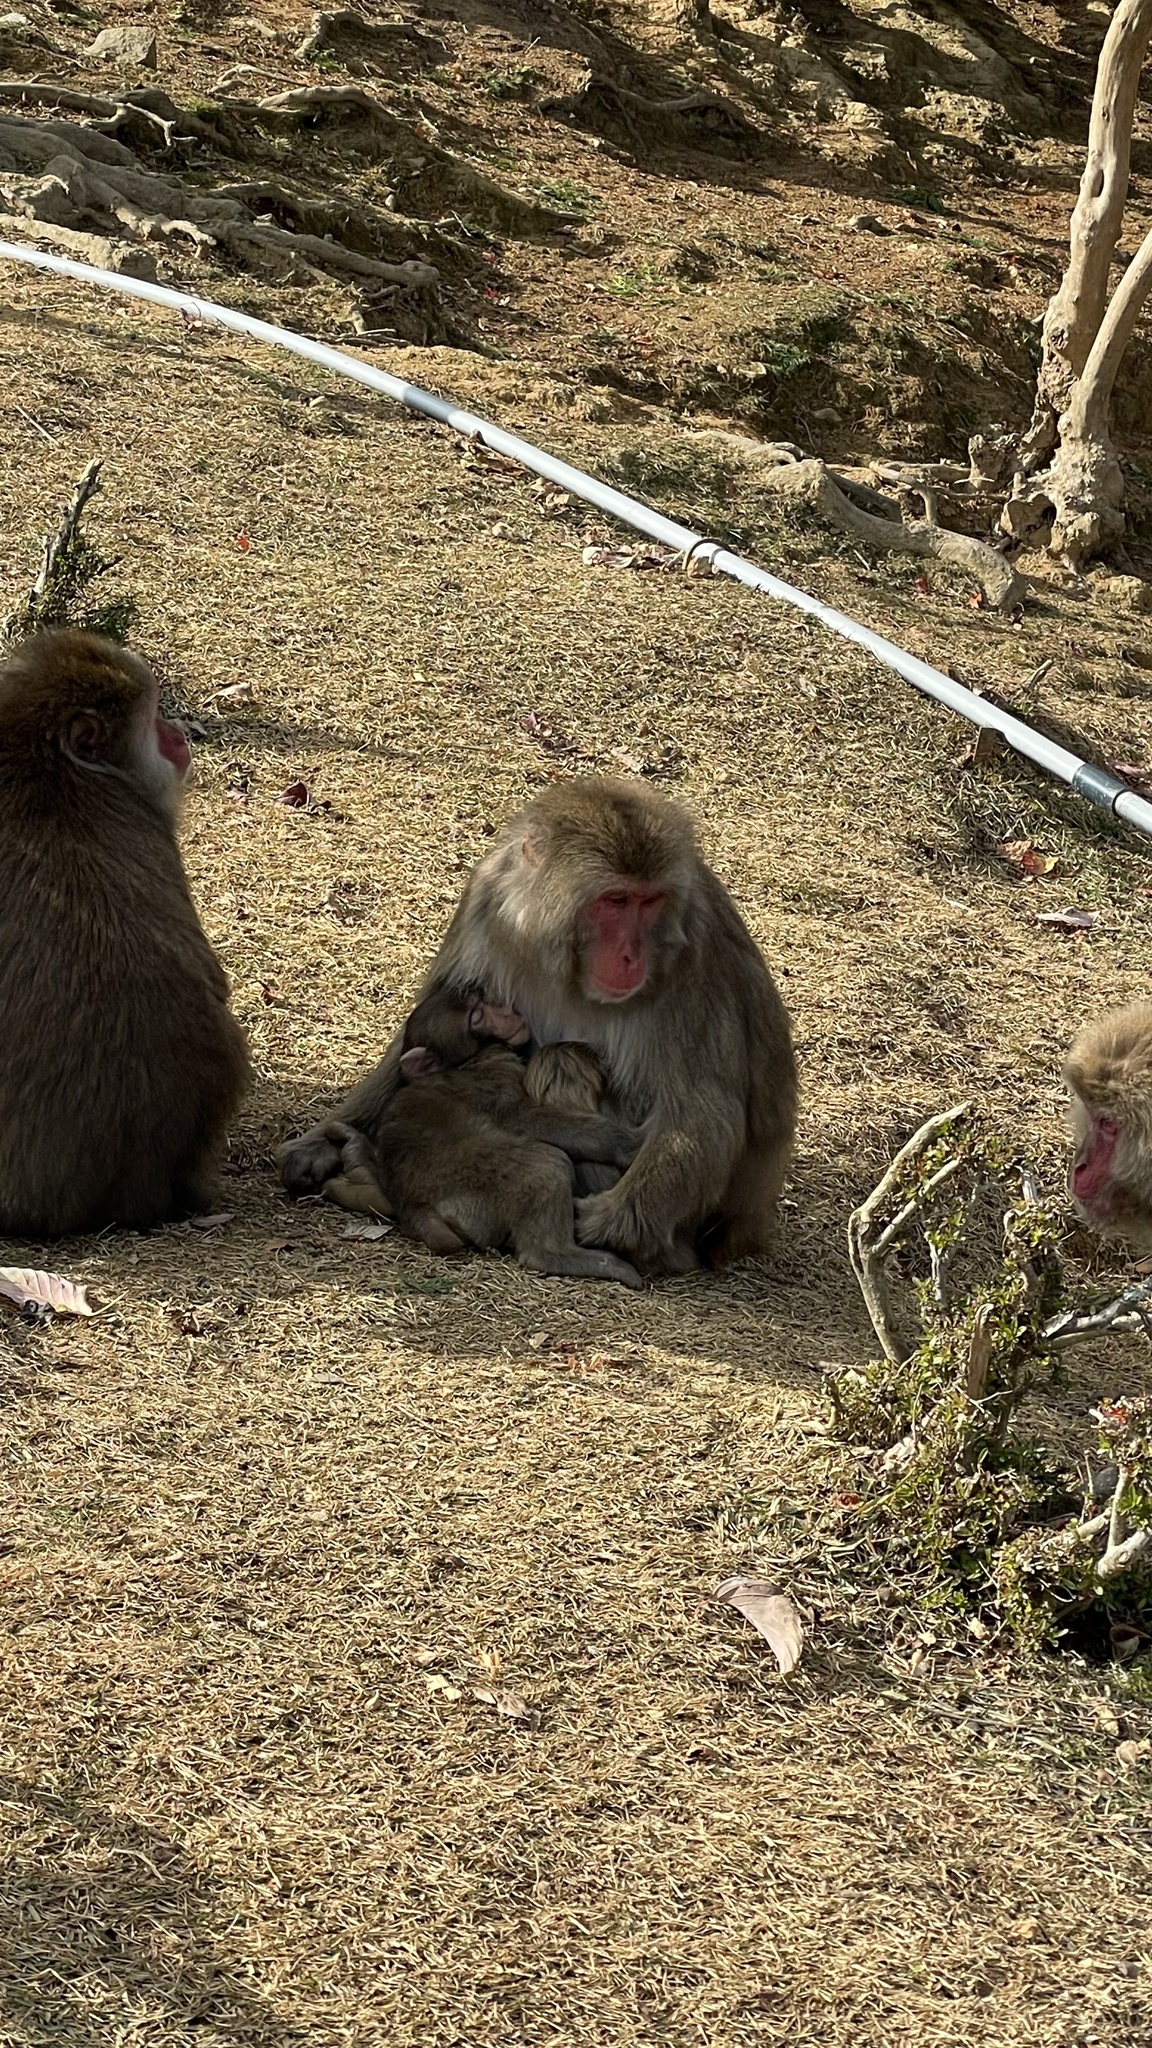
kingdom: Animalia
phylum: Chordata
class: Mammalia
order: Primates
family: Cercopithecidae
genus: Macaca
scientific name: Macaca fuscata
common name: Japanese macaque
